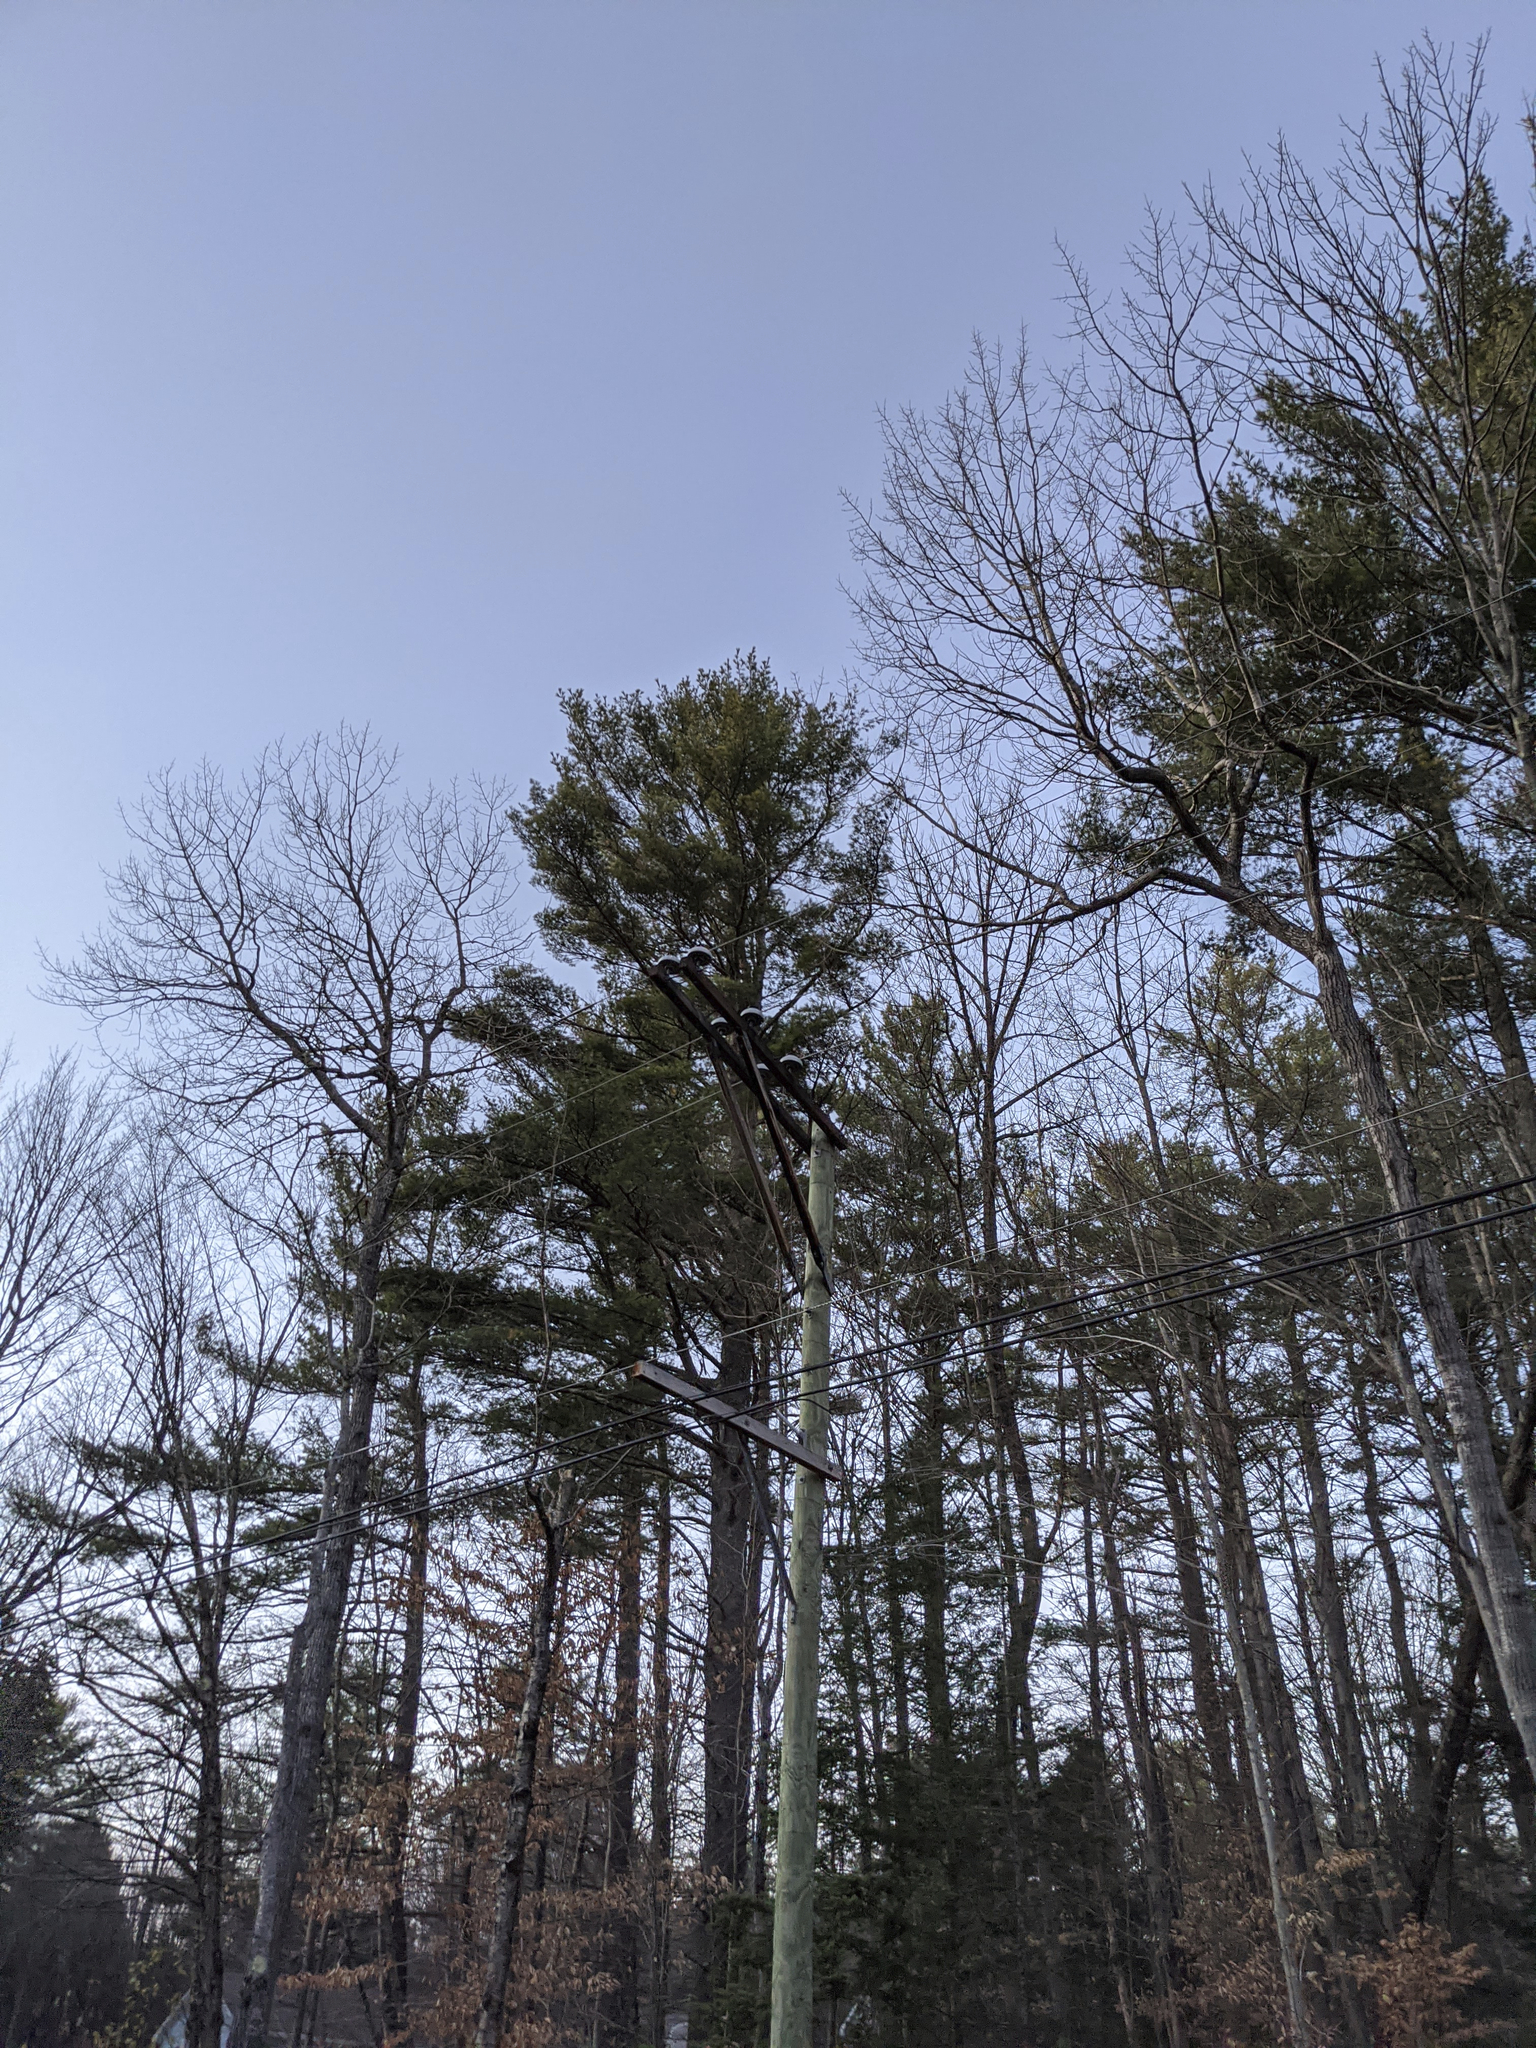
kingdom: Plantae
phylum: Tracheophyta
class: Pinopsida
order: Pinales
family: Pinaceae
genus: Pinus
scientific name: Pinus strobus
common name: Weymouth pine
